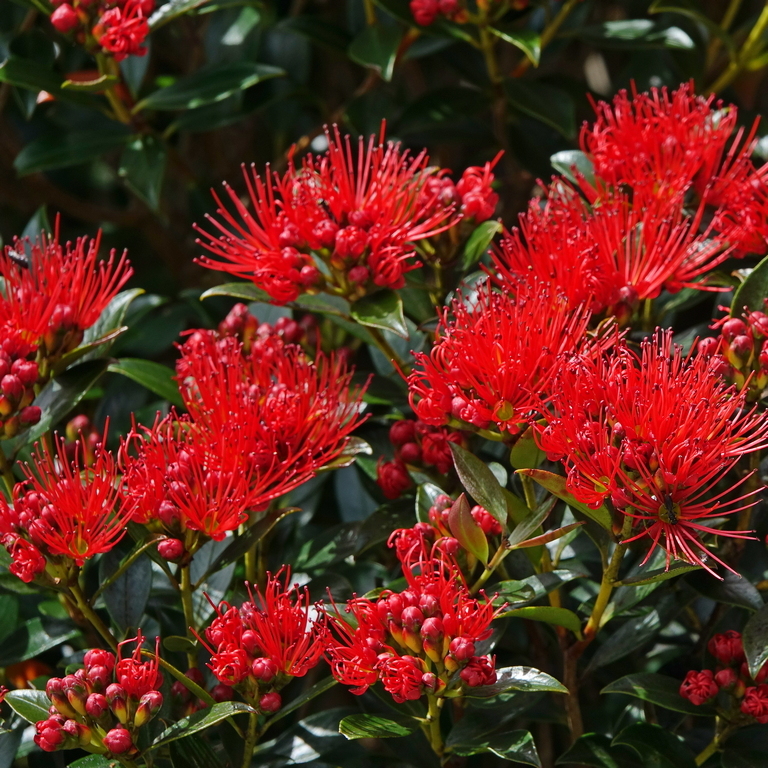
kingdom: Plantae
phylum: Tracheophyta
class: Magnoliopsida
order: Myrtales
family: Myrtaceae
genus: Metrosideros
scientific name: Metrosideros umbellata
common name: Southern rata
